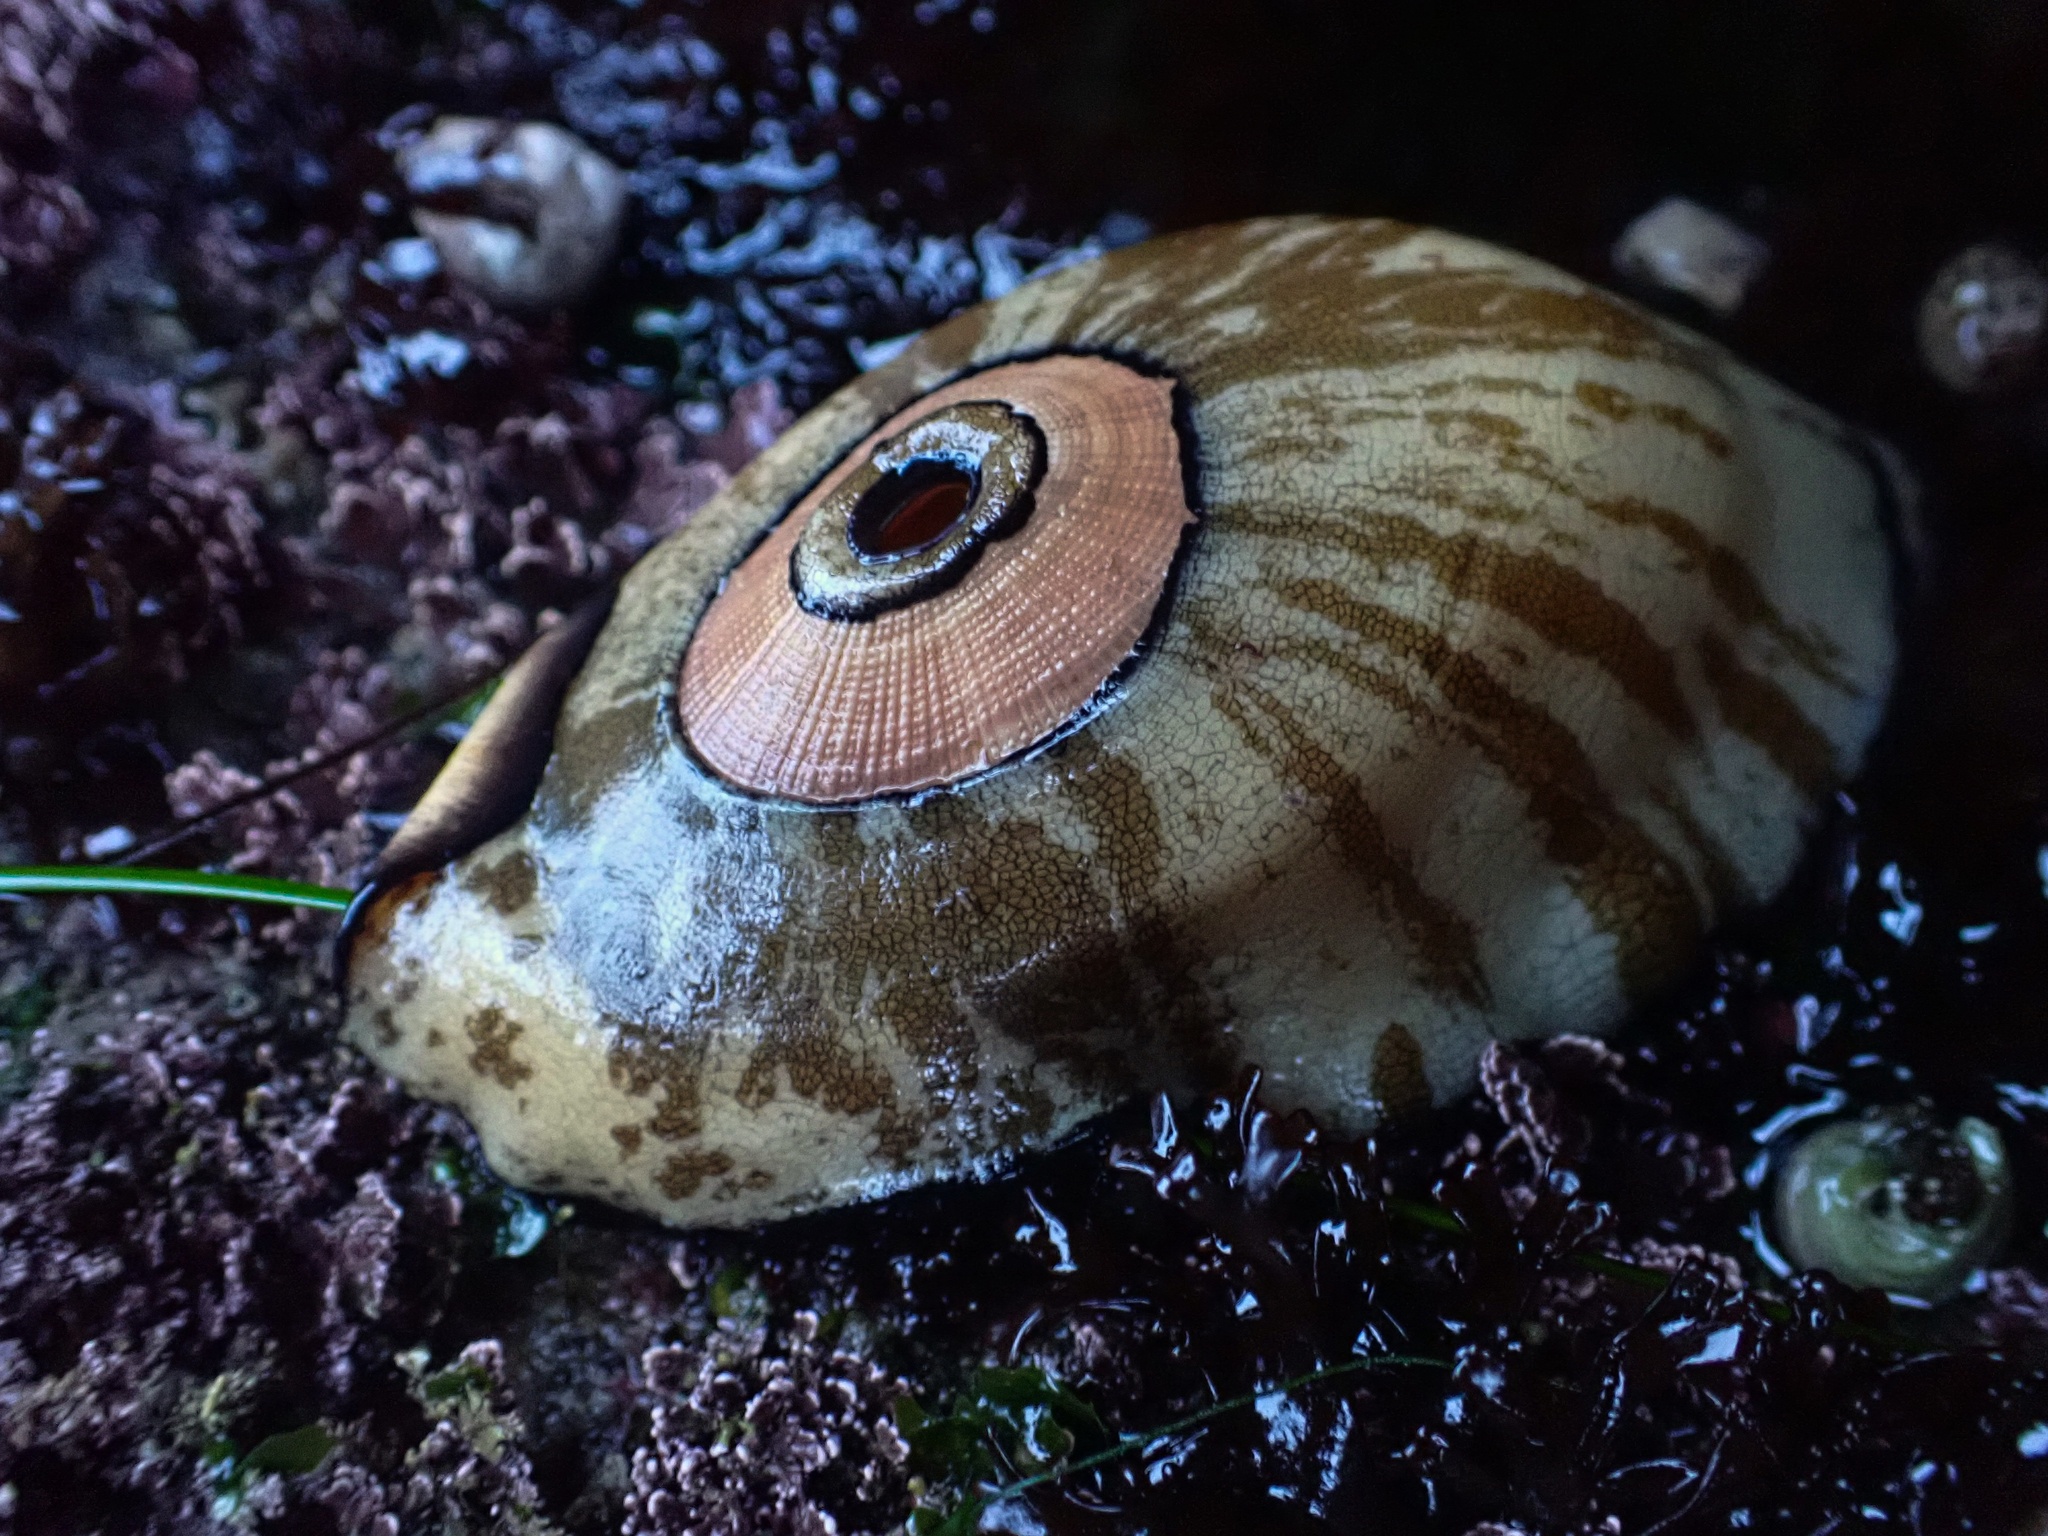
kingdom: Animalia
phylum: Mollusca
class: Gastropoda
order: Lepetellida
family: Fissurellidae
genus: Megathura
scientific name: Megathura crenulata
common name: Giant keyhole limpet
